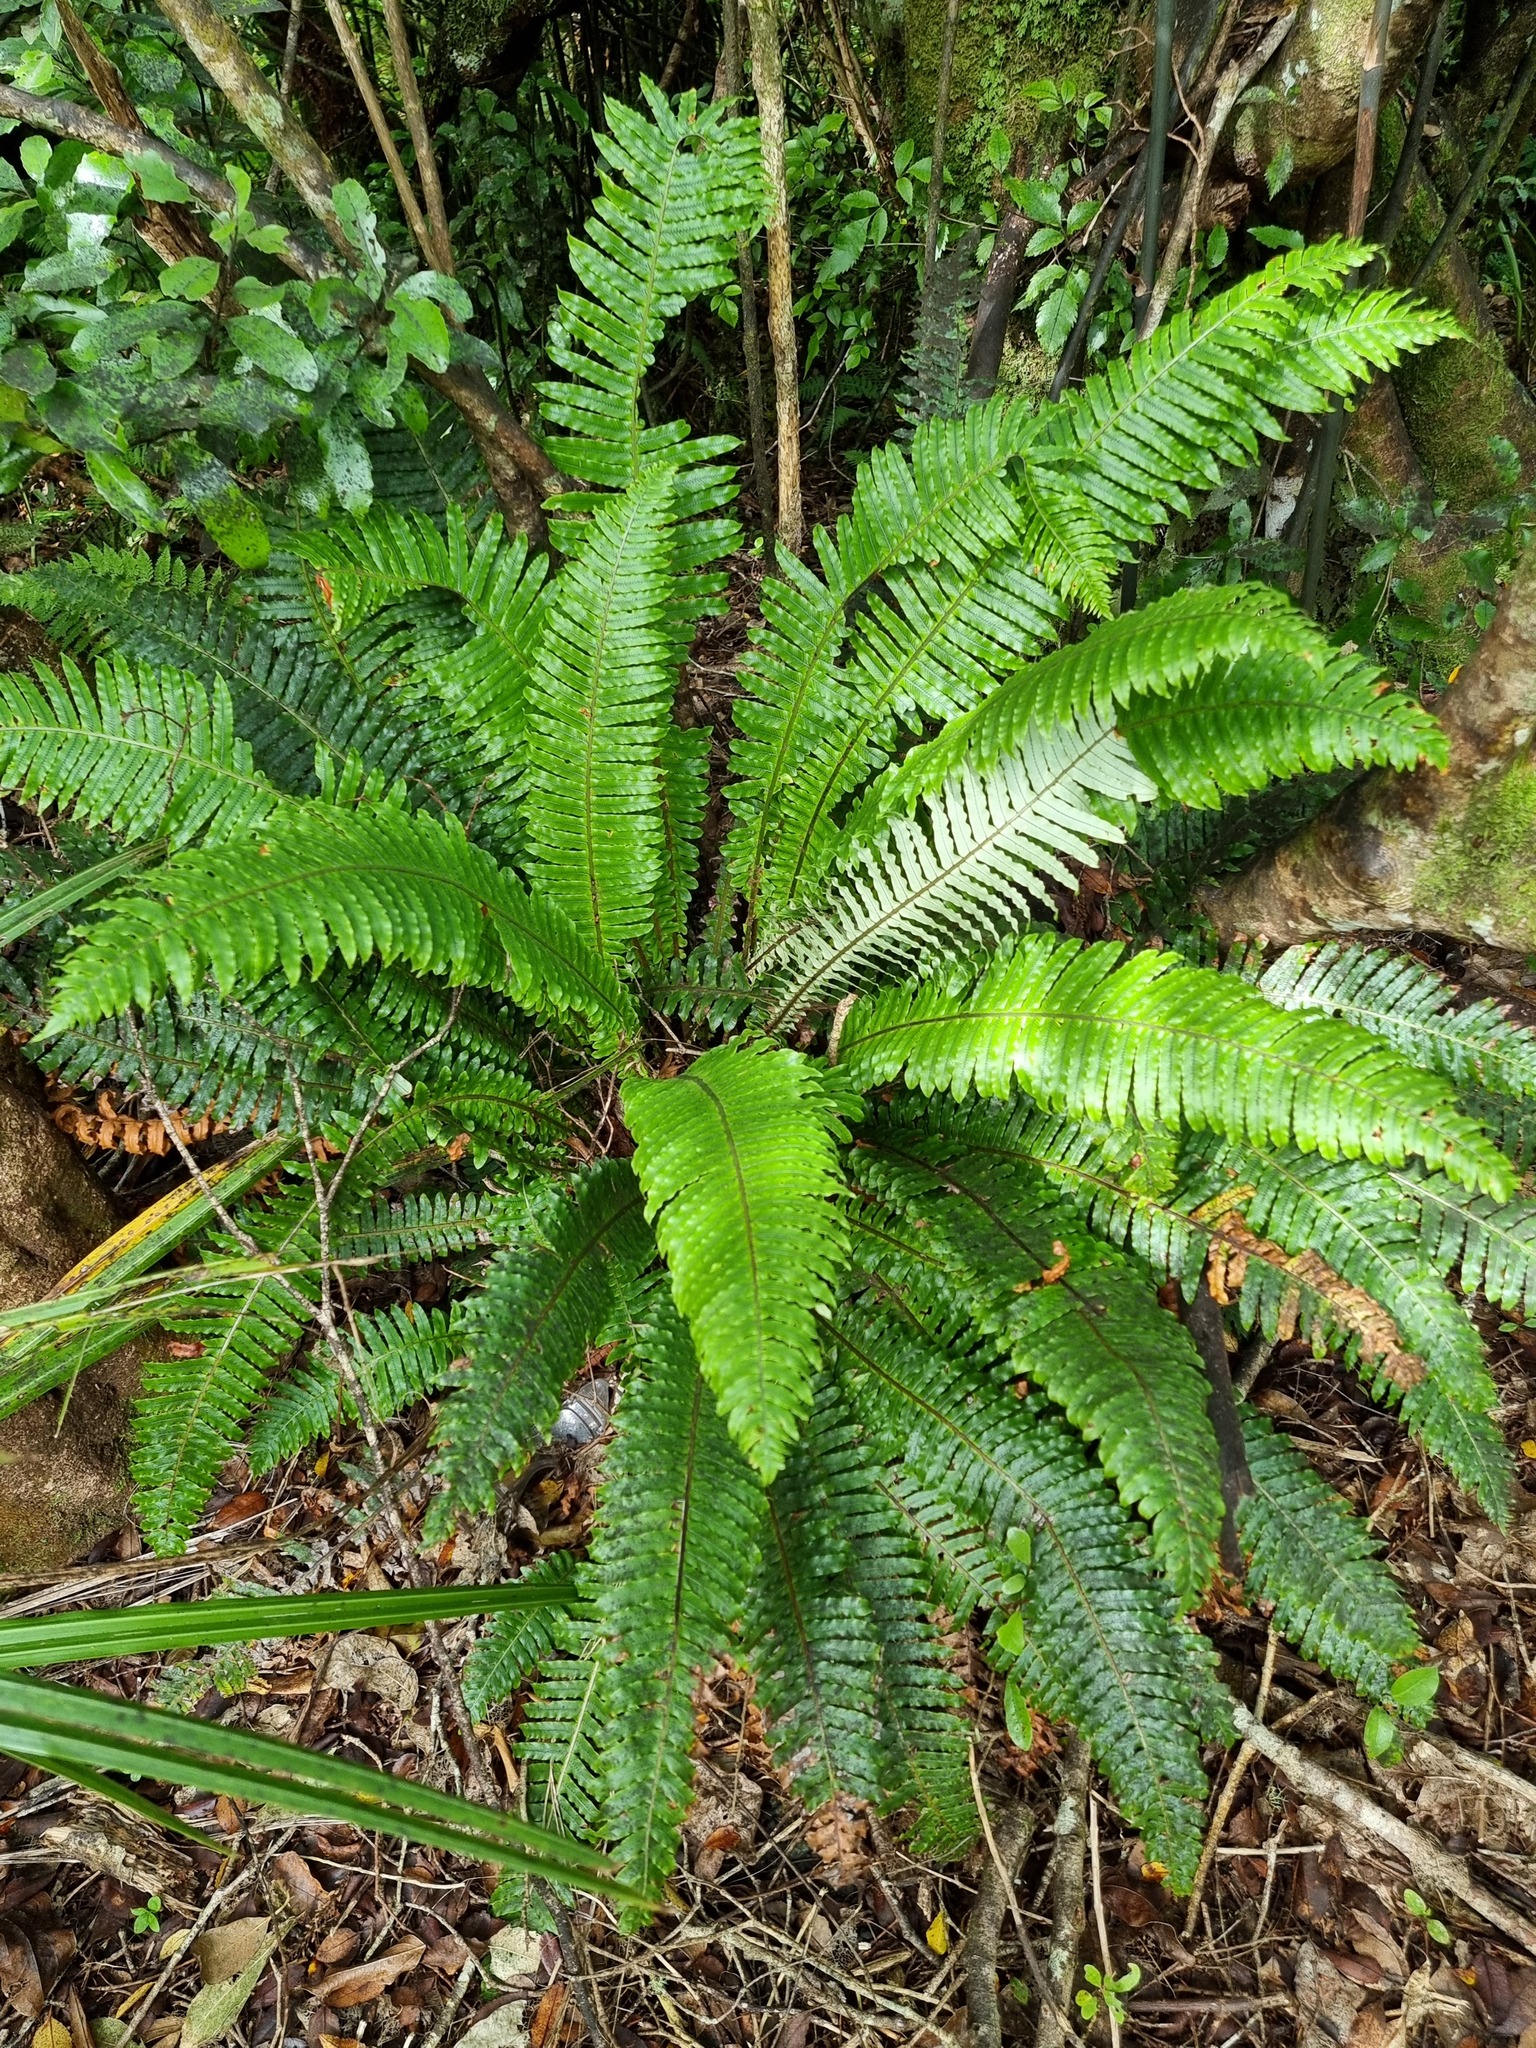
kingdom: Plantae
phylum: Tracheophyta
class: Polypodiopsida
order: Polypodiales
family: Blechnaceae
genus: Lomaria
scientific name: Lomaria discolor
